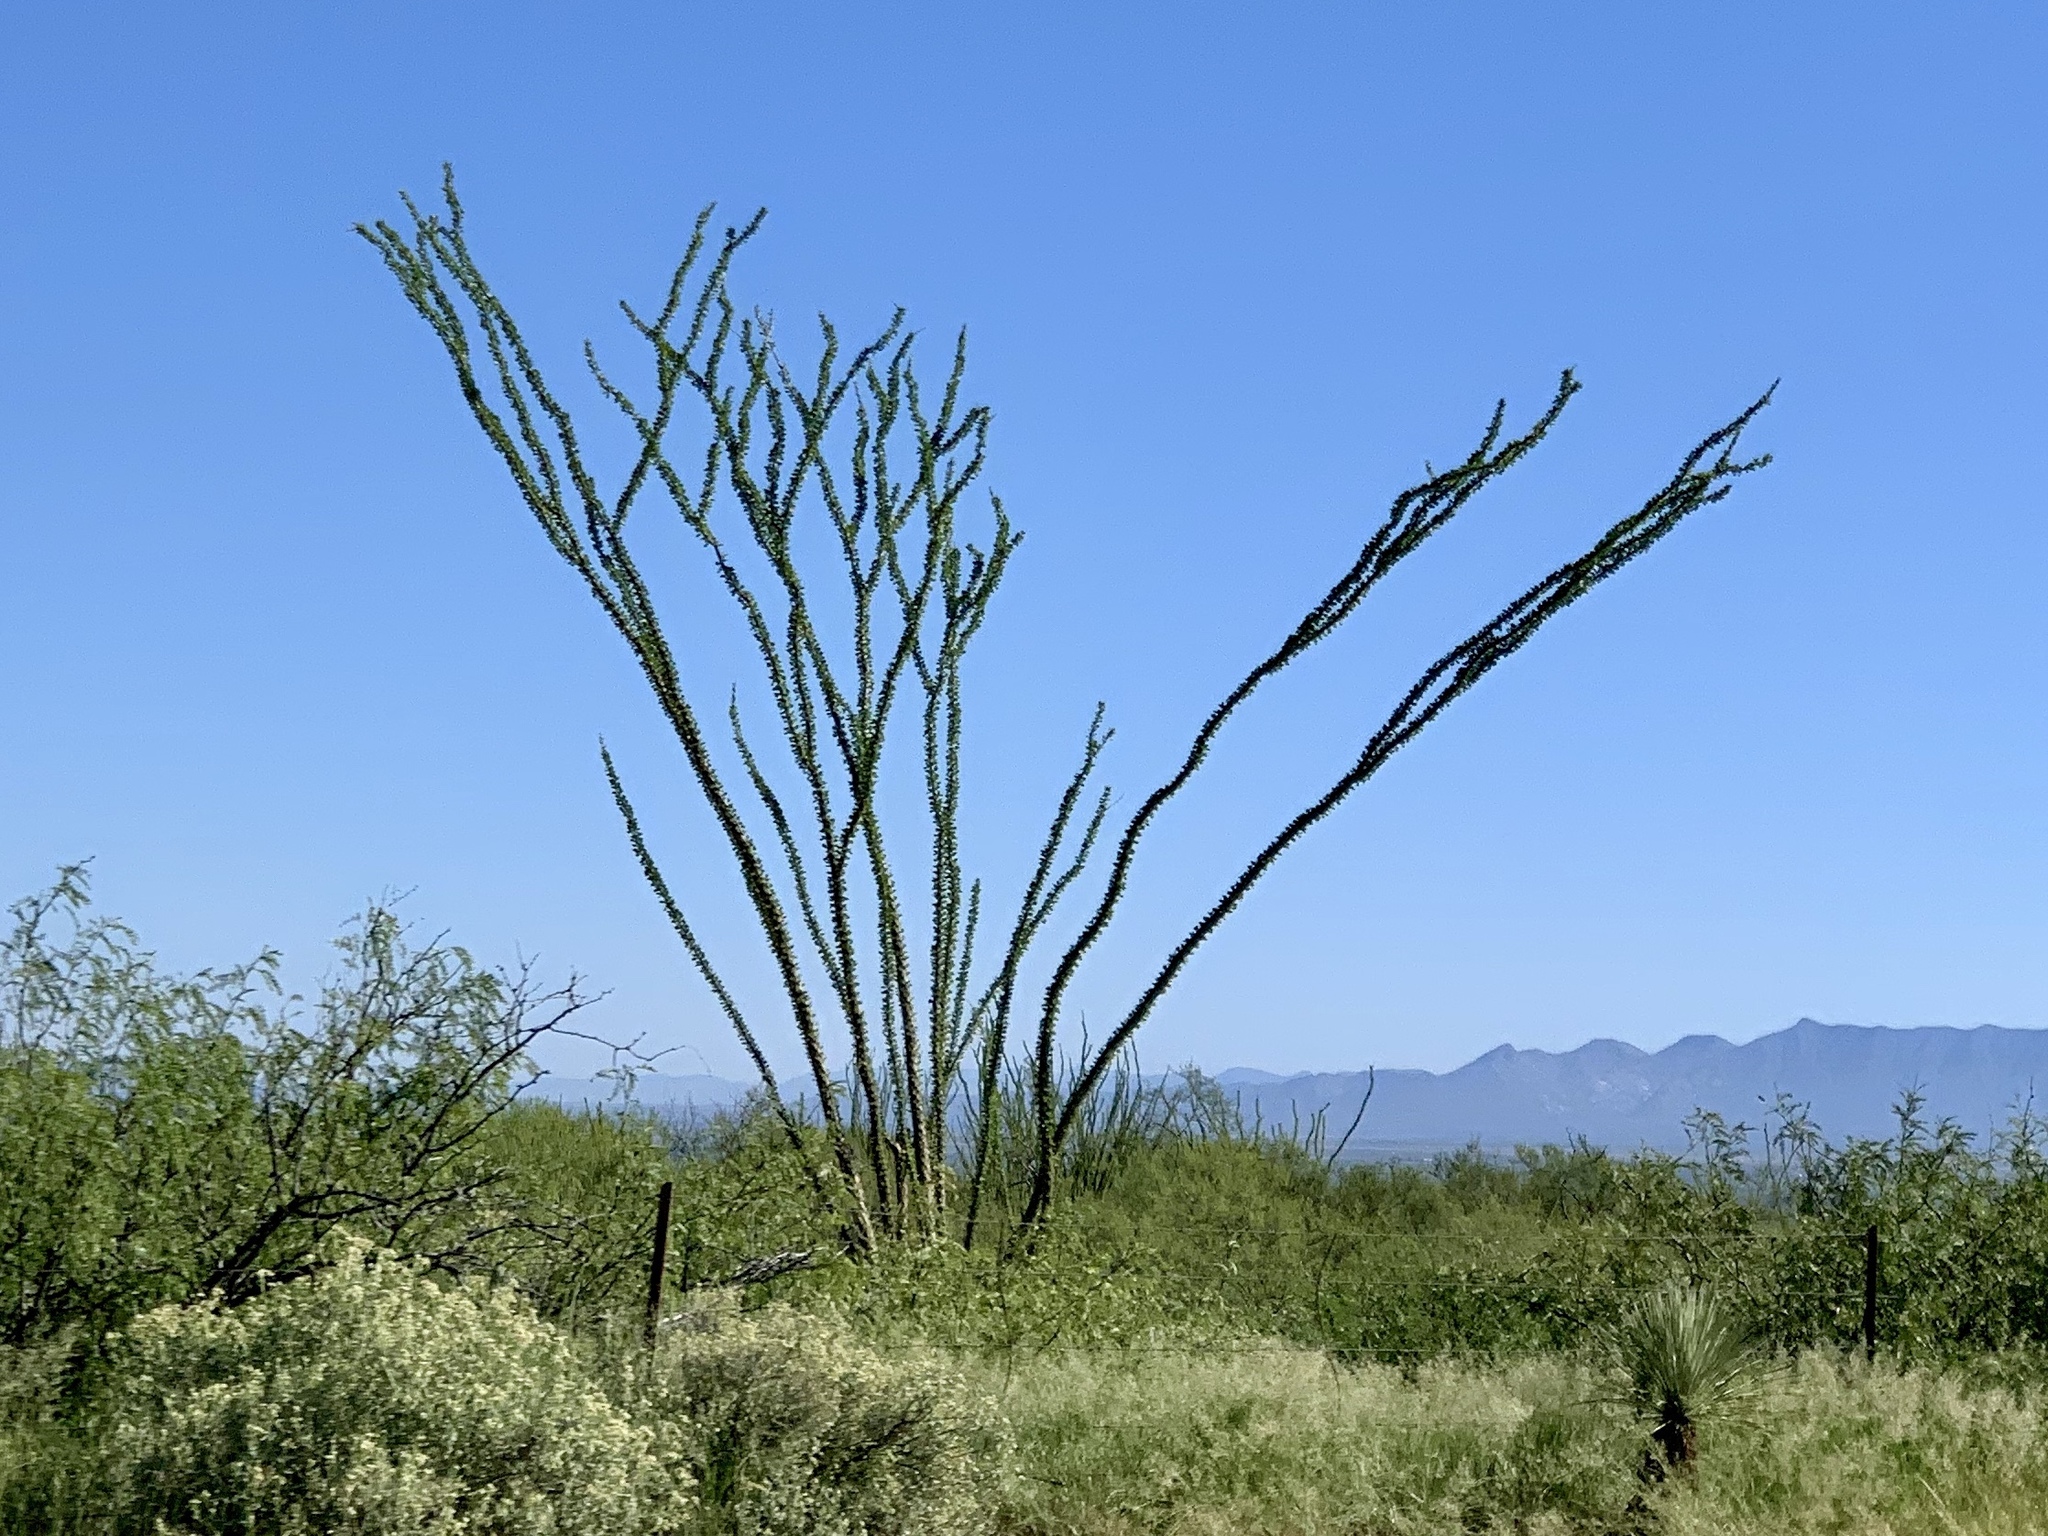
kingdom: Plantae
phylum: Tracheophyta
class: Magnoliopsida
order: Ericales
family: Fouquieriaceae
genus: Fouquieria
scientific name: Fouquieria splendens
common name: Vine-cactus
